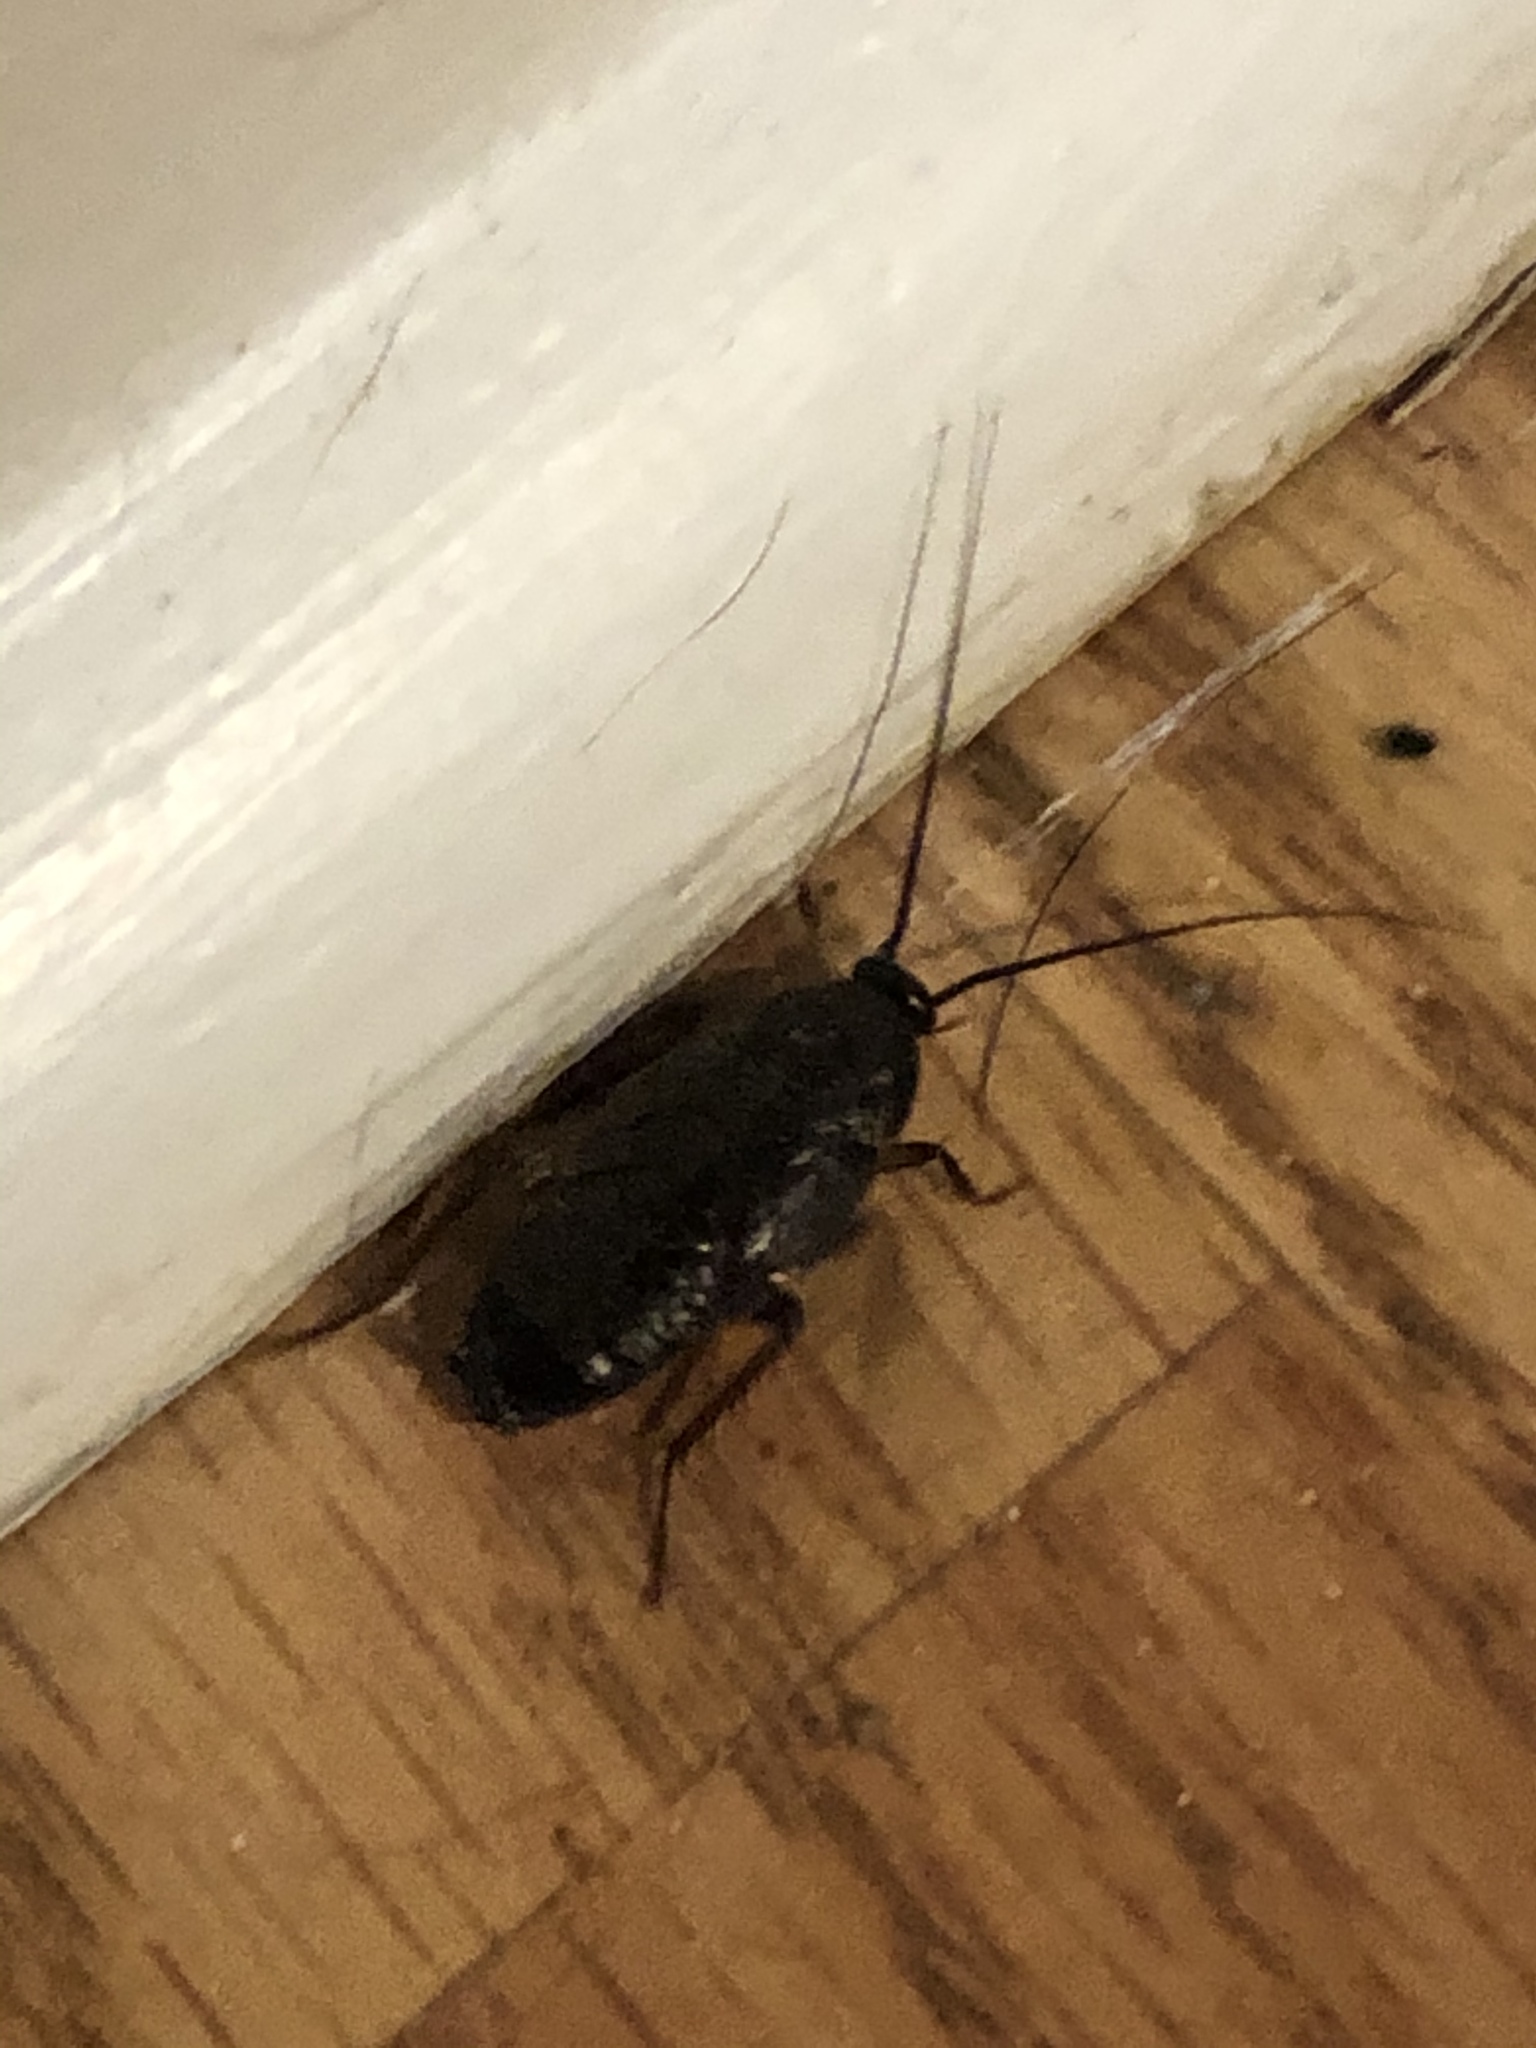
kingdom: Animalia
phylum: Arthropoda
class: Insecta
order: Blattodea
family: Blattidae
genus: Blatta
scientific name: Blatta orientalis
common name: Oriental cockroach
